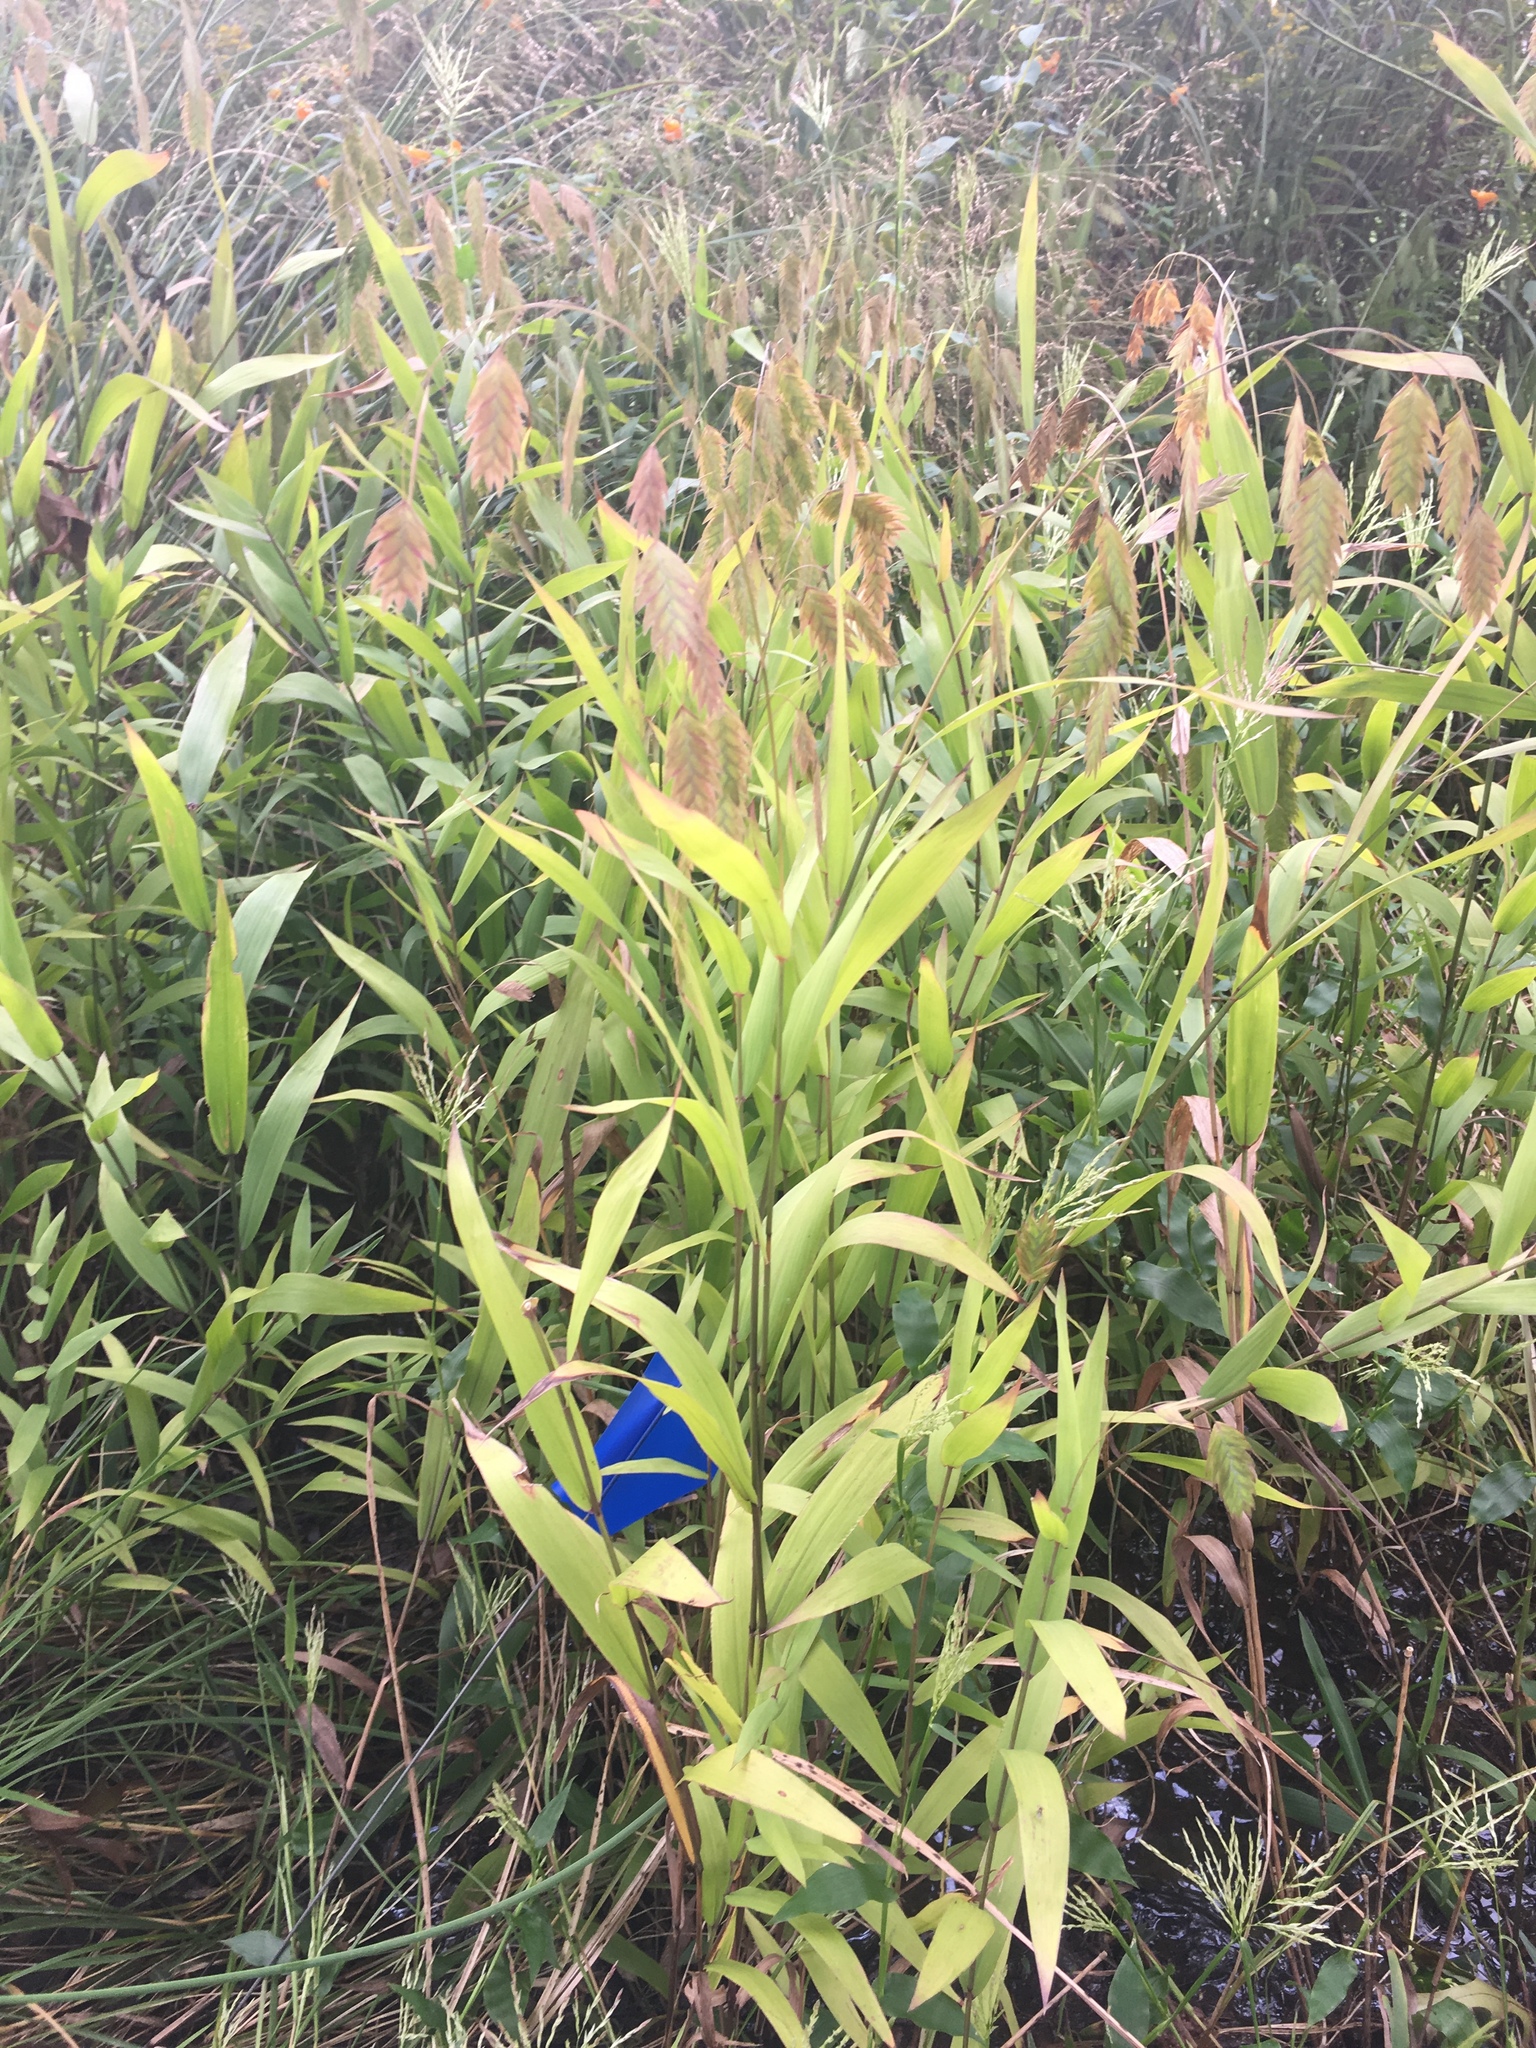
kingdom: Plantae
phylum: Tracheophyta
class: Liliopsida
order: Poales
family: Poaceae
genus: Chasmanthium
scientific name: Chasmanthium latifolium
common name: Broad-leaved chasmanthium
